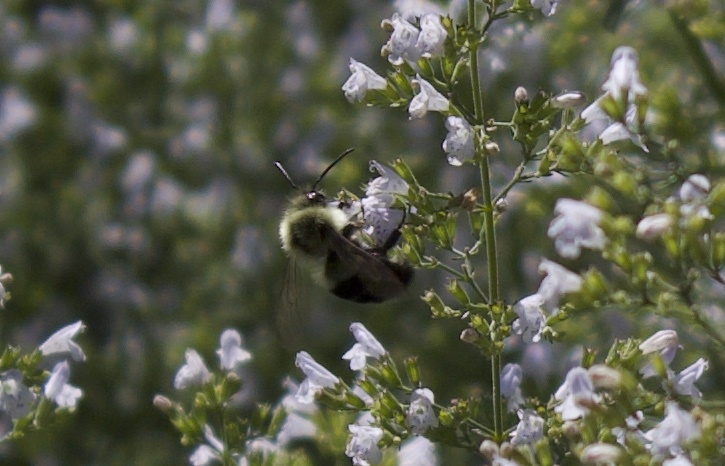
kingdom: Animalia
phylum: Arthropoda
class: Insecta
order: Hymenoptera
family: Apidae
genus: Bombus
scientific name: Bombus impatiens
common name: Common eastern bumble bee
